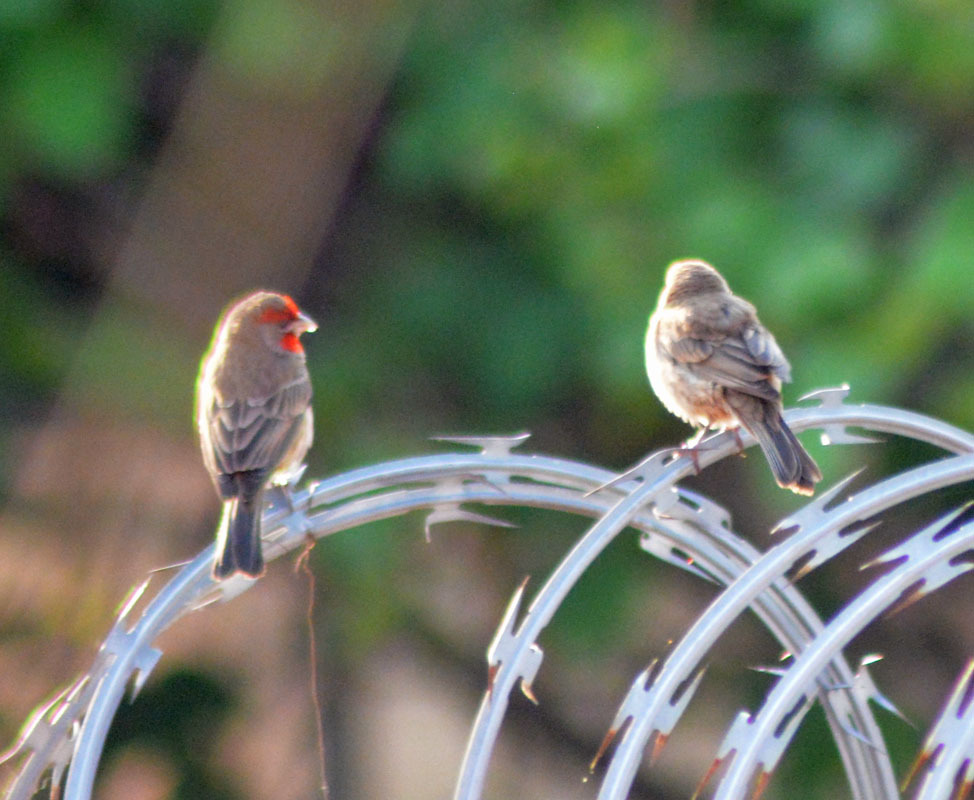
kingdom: Animalia
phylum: Chordata
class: Aves
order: Passeriformes
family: Fringillidae
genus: Haemorhous
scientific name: Haemorhous mexicanus
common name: House finch
